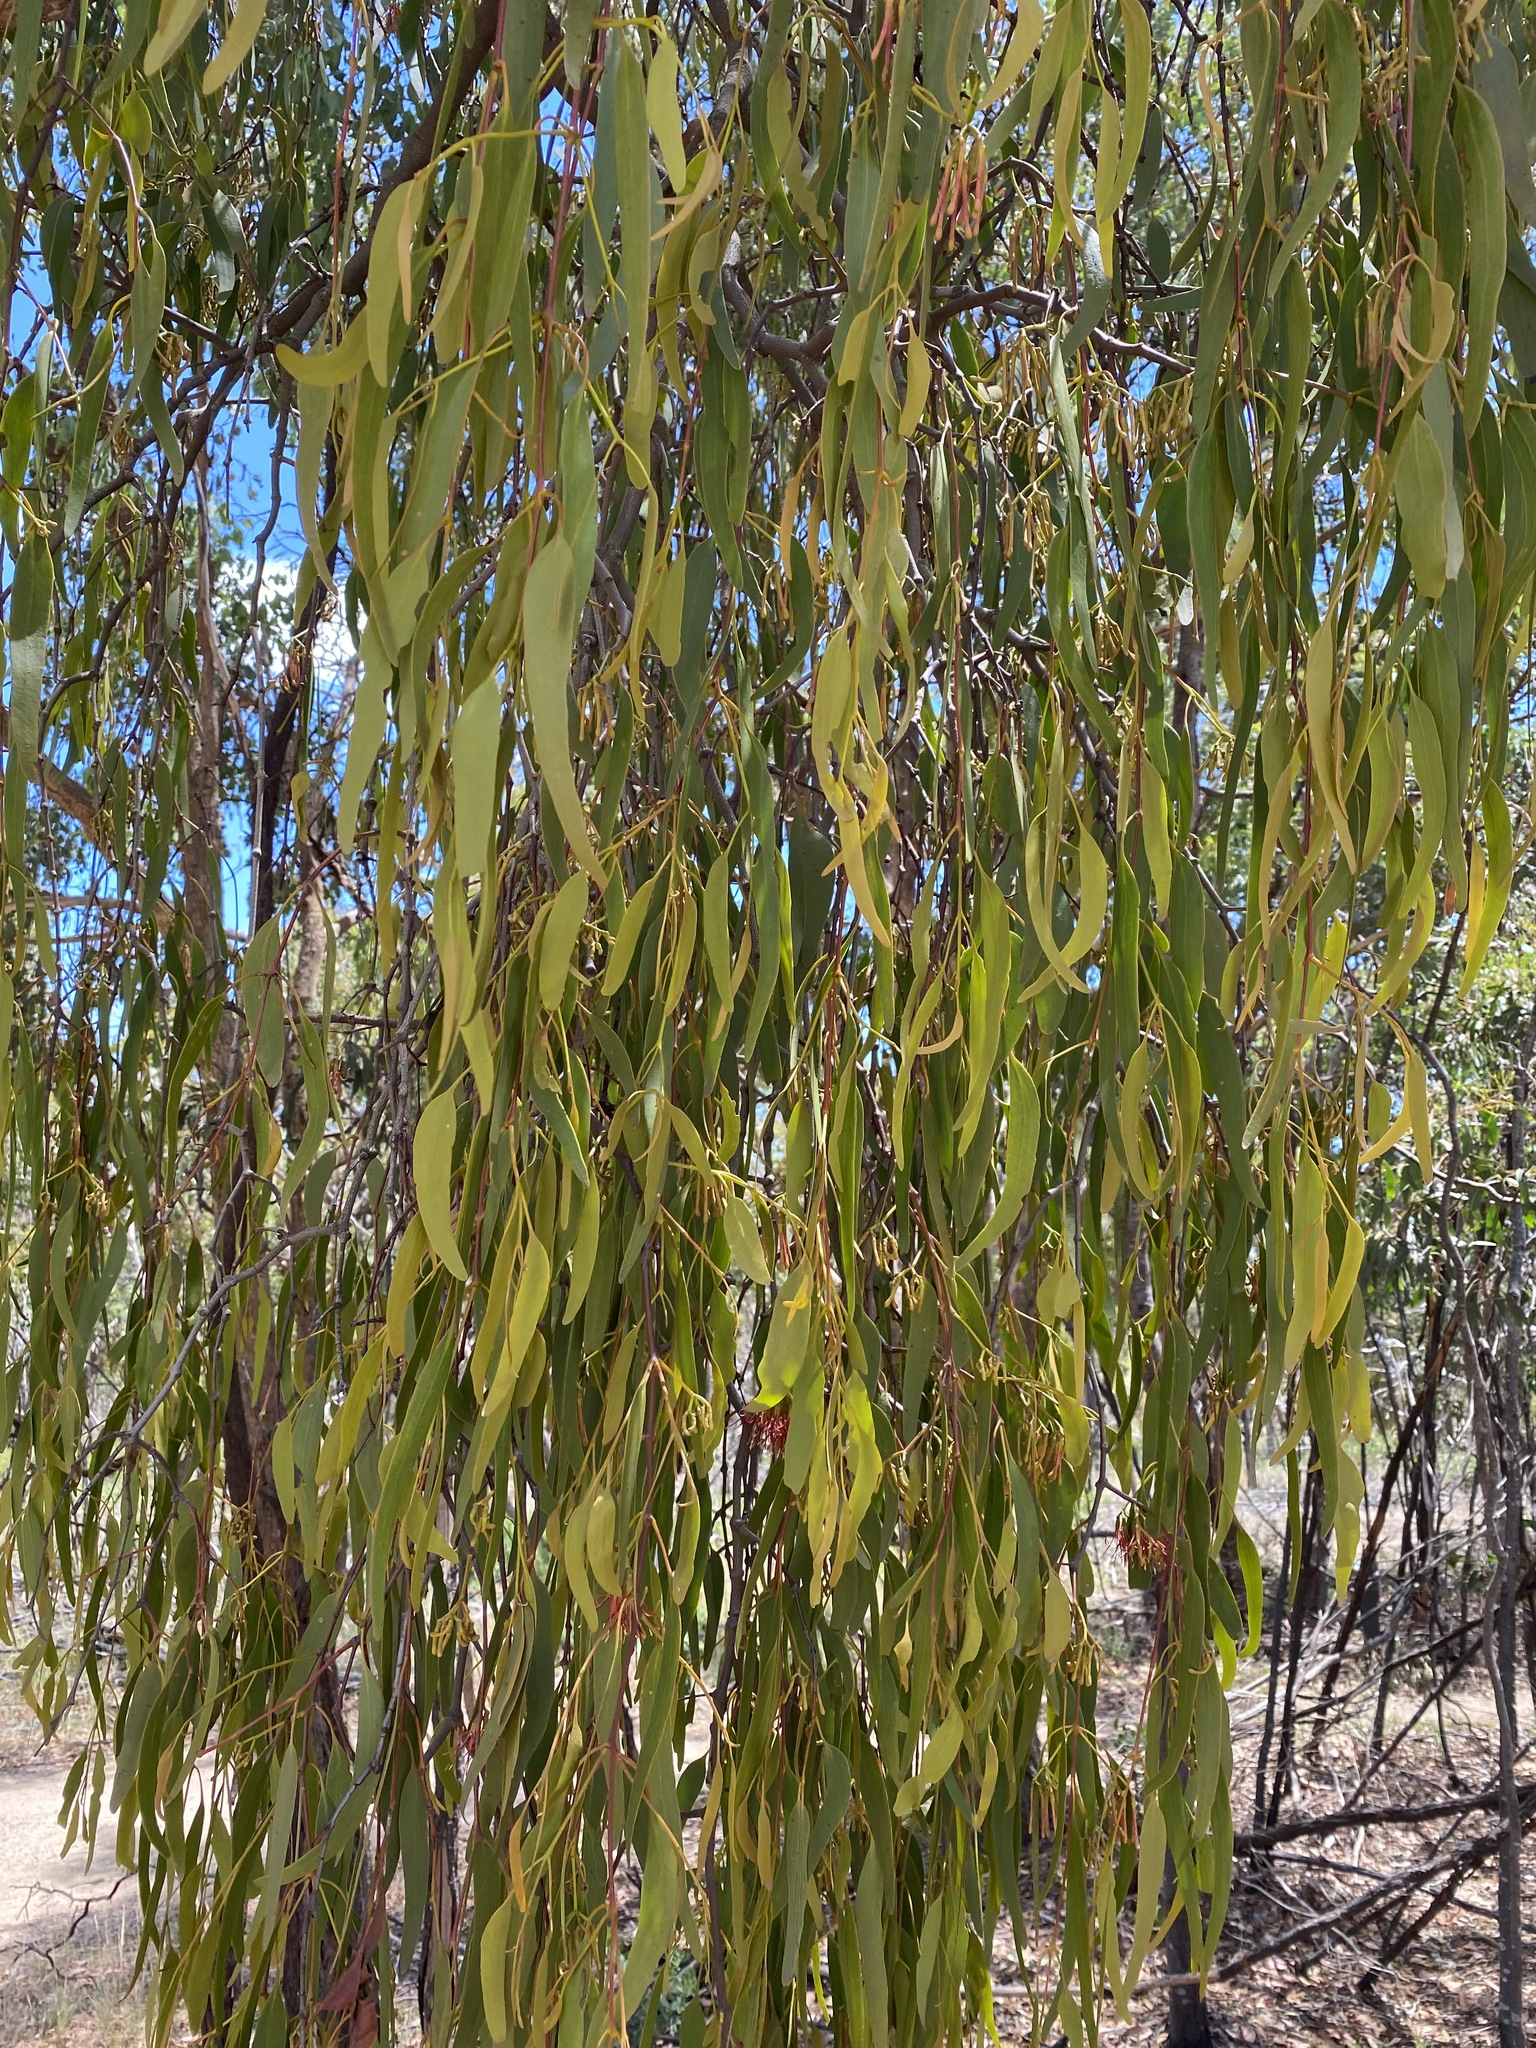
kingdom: Plantae
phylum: Tracheophyta
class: Magnoliopsida
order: Santalales
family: Loranthaceae
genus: Amyema
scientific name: Amyema miquelii
